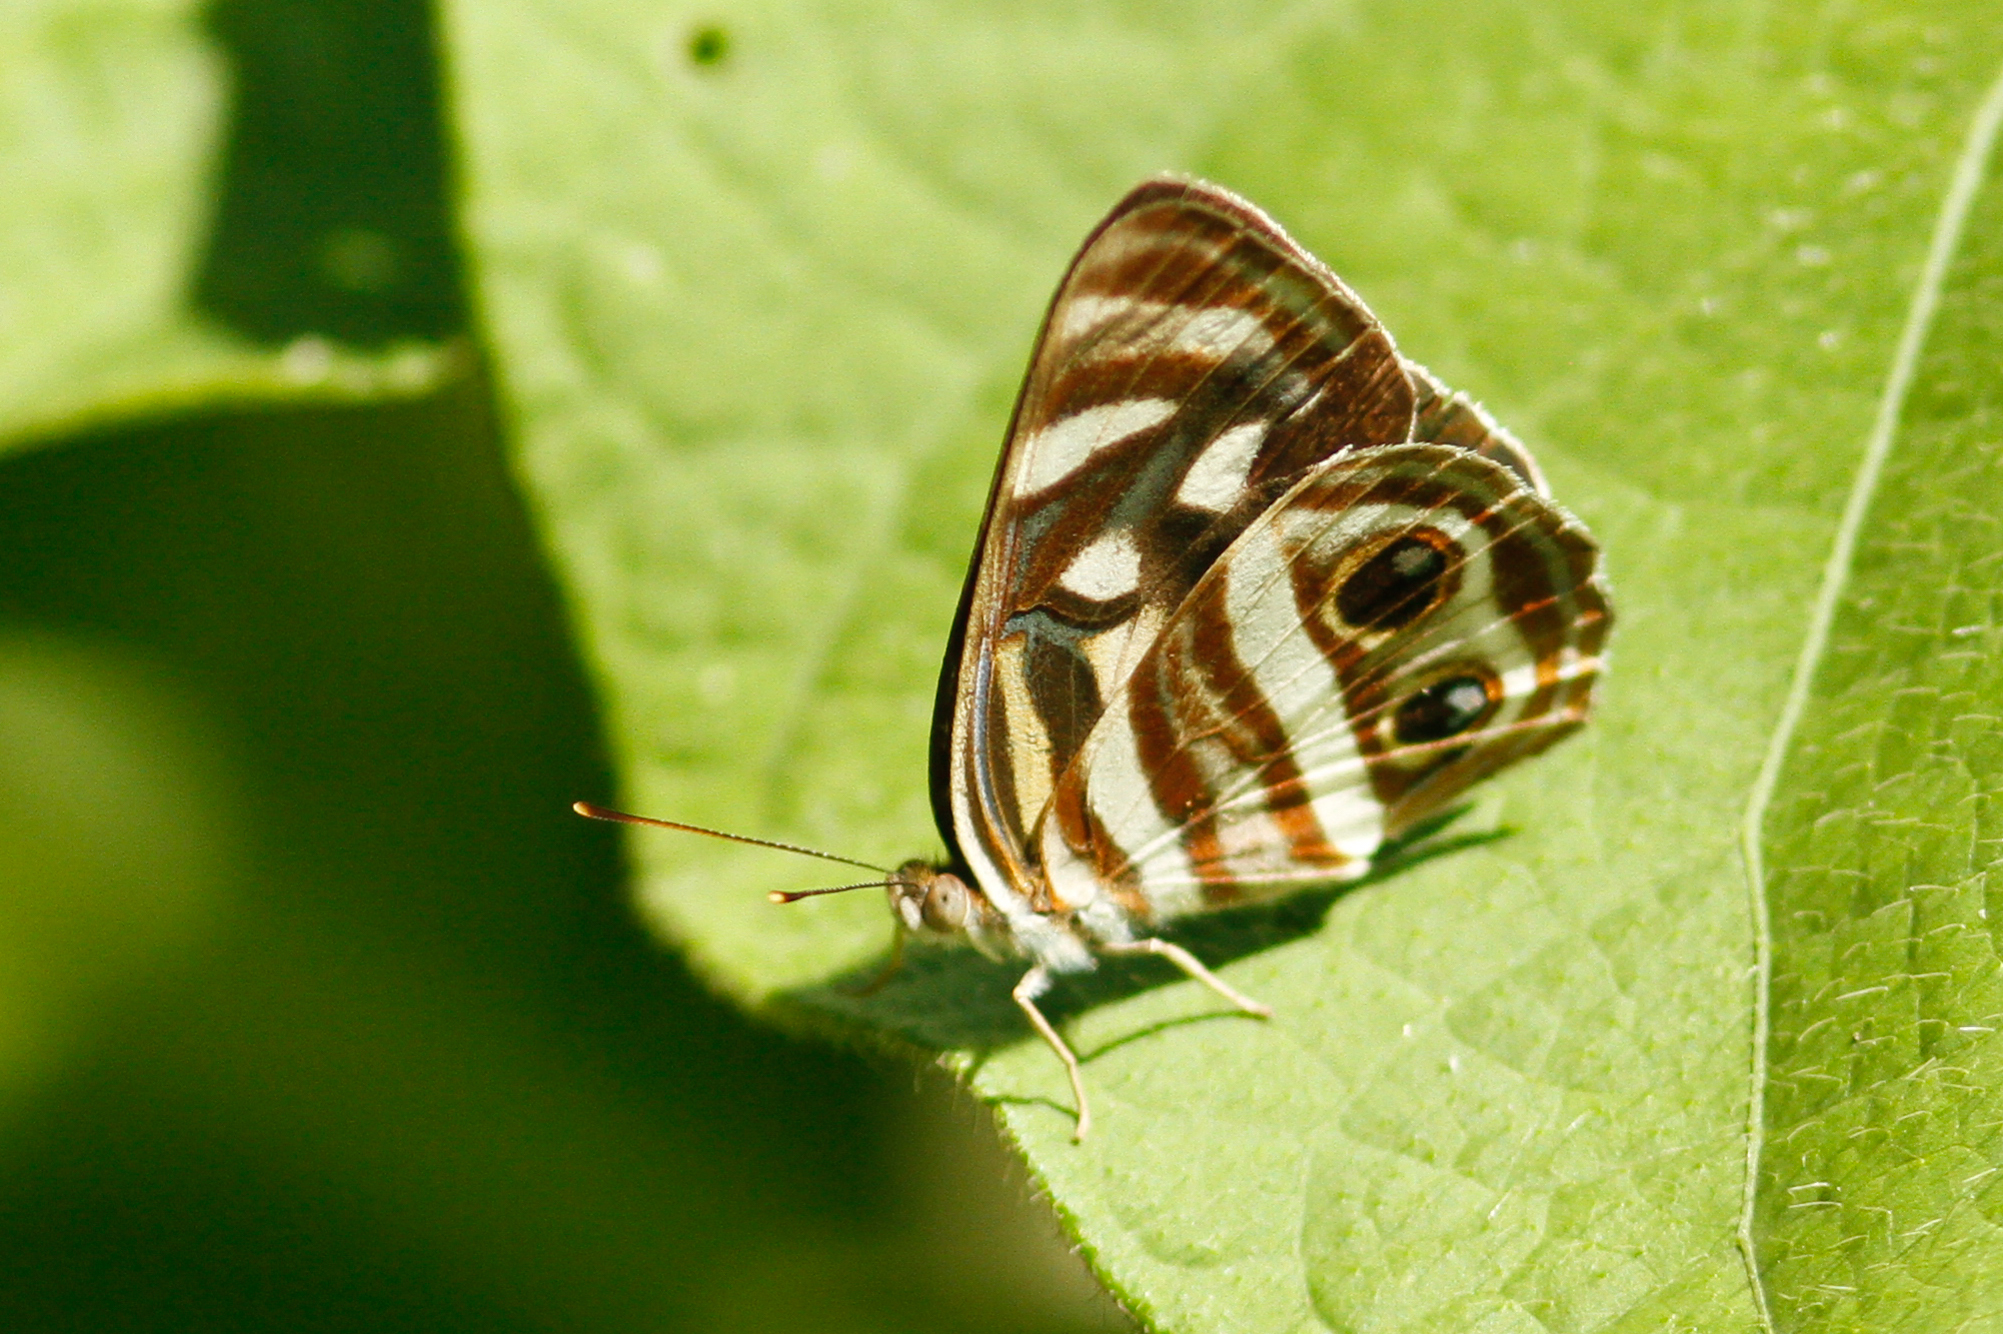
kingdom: Animalia
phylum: Arthropoda
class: Insecta
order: Lepidoptera
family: Nymphalidae
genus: Dynamine
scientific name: Dynamine mylitta
